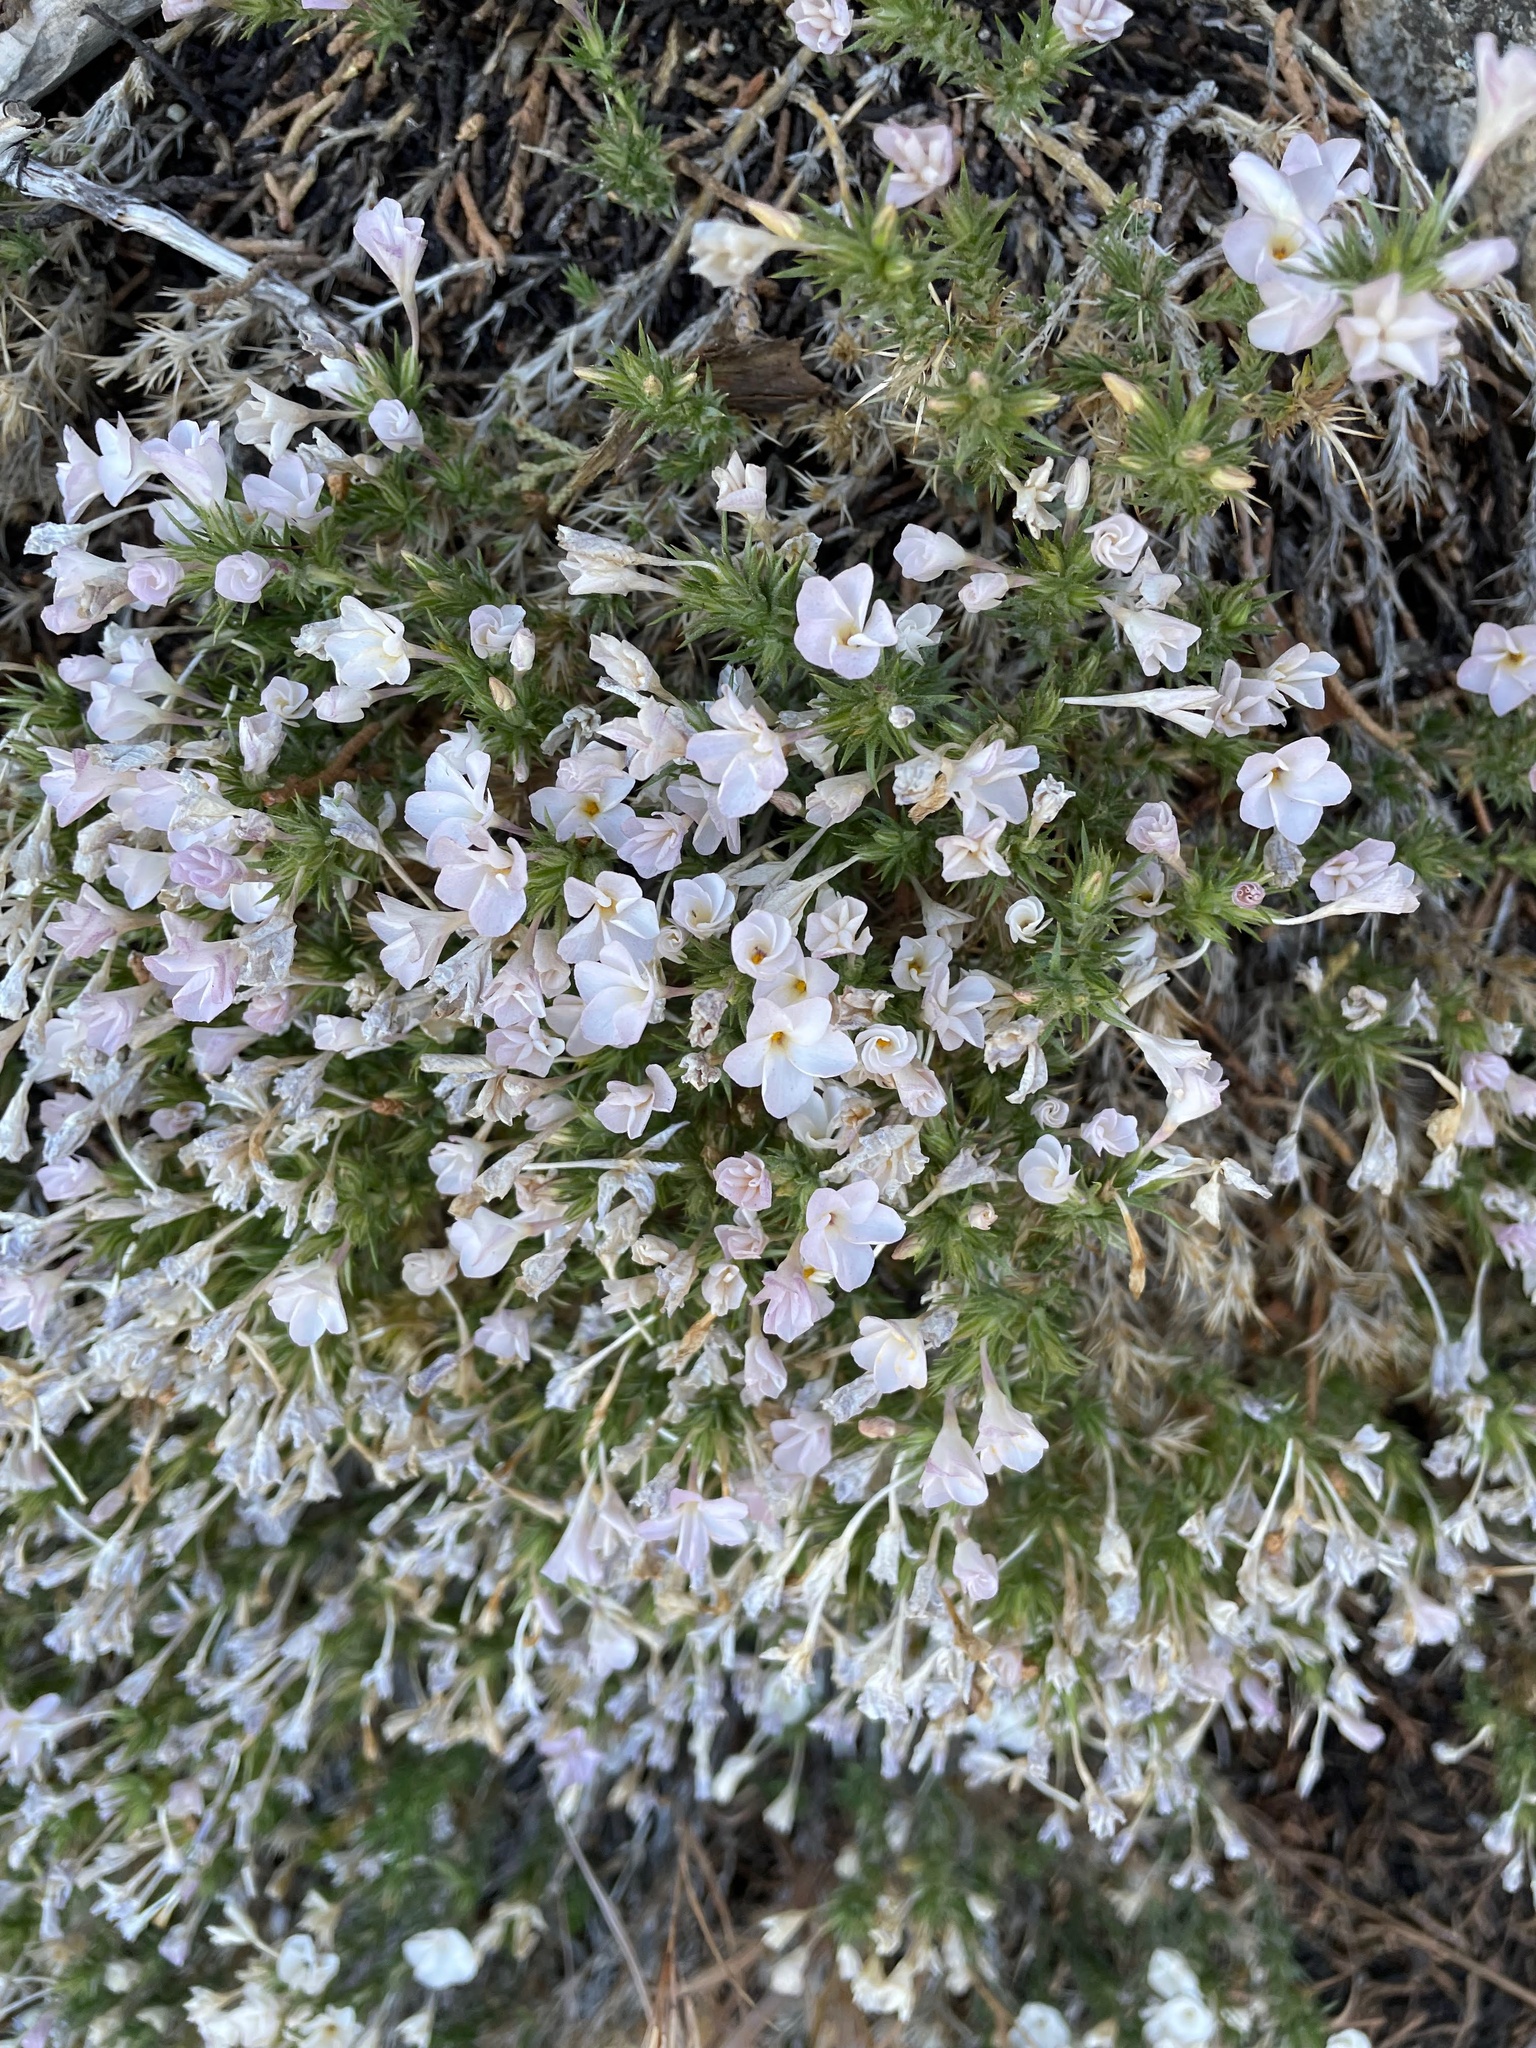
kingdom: Plantae
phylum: Tracheophyta
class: Magnoliopsida
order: Ericales
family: Polemoniaceae
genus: Linanthus
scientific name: Linanthus pungens
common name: Granite prickly phlox
